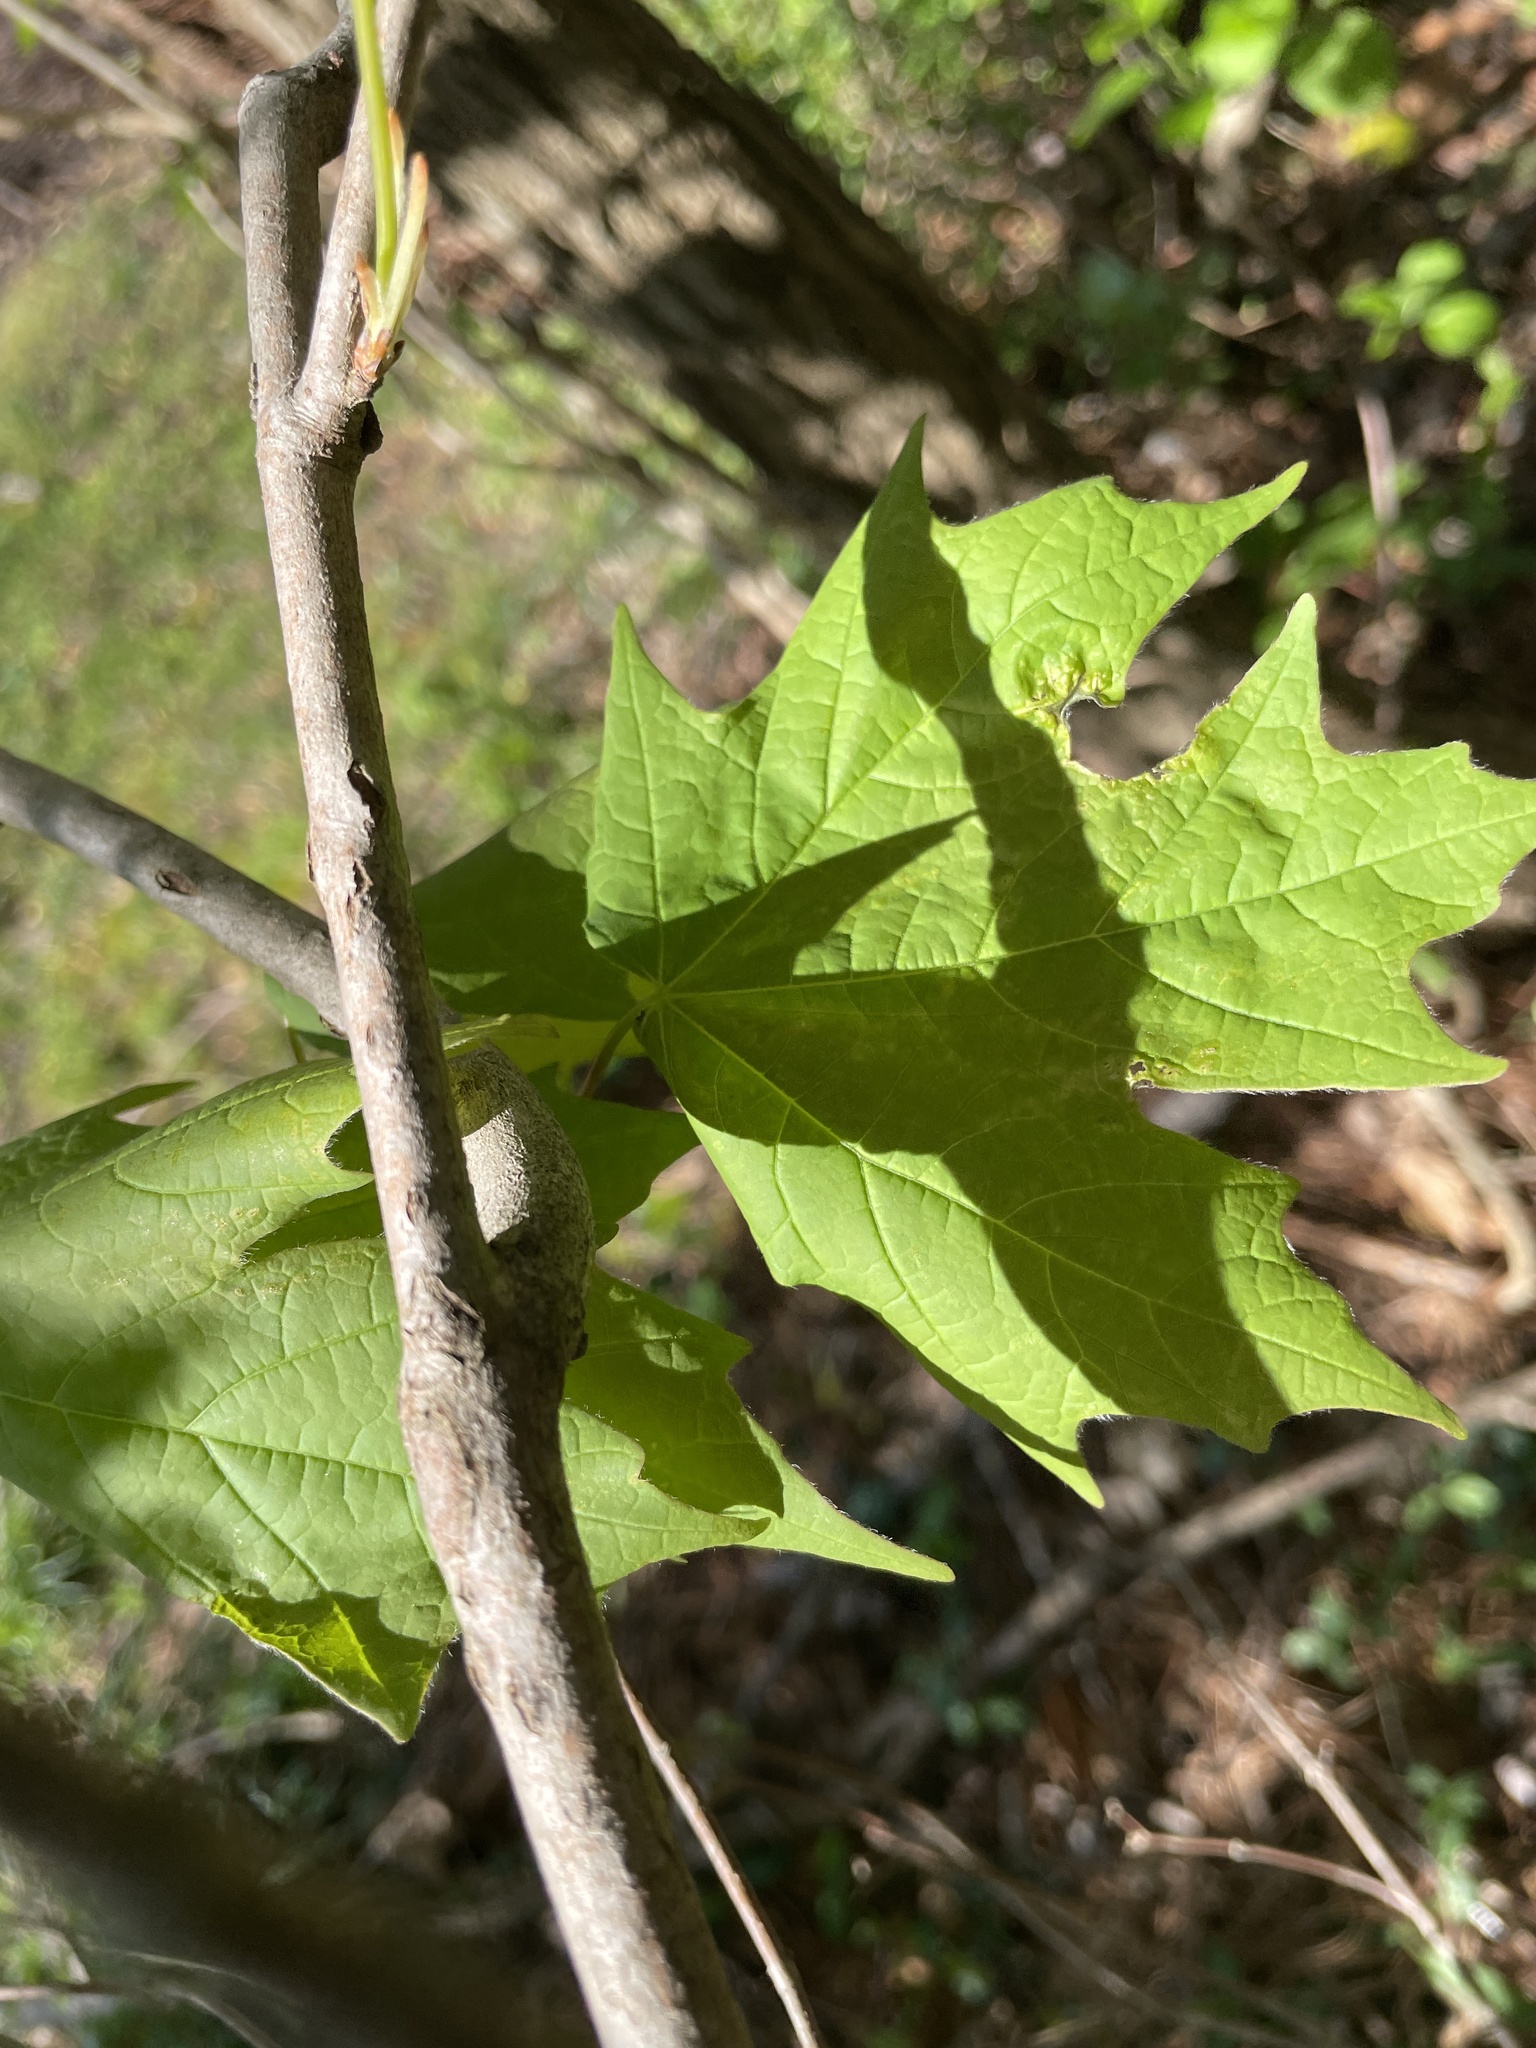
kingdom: Plantae
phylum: Tracheophyta
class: Magnoliopsida
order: Sapindales
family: Sapindaceae
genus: Acer
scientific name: Acer floridanum
